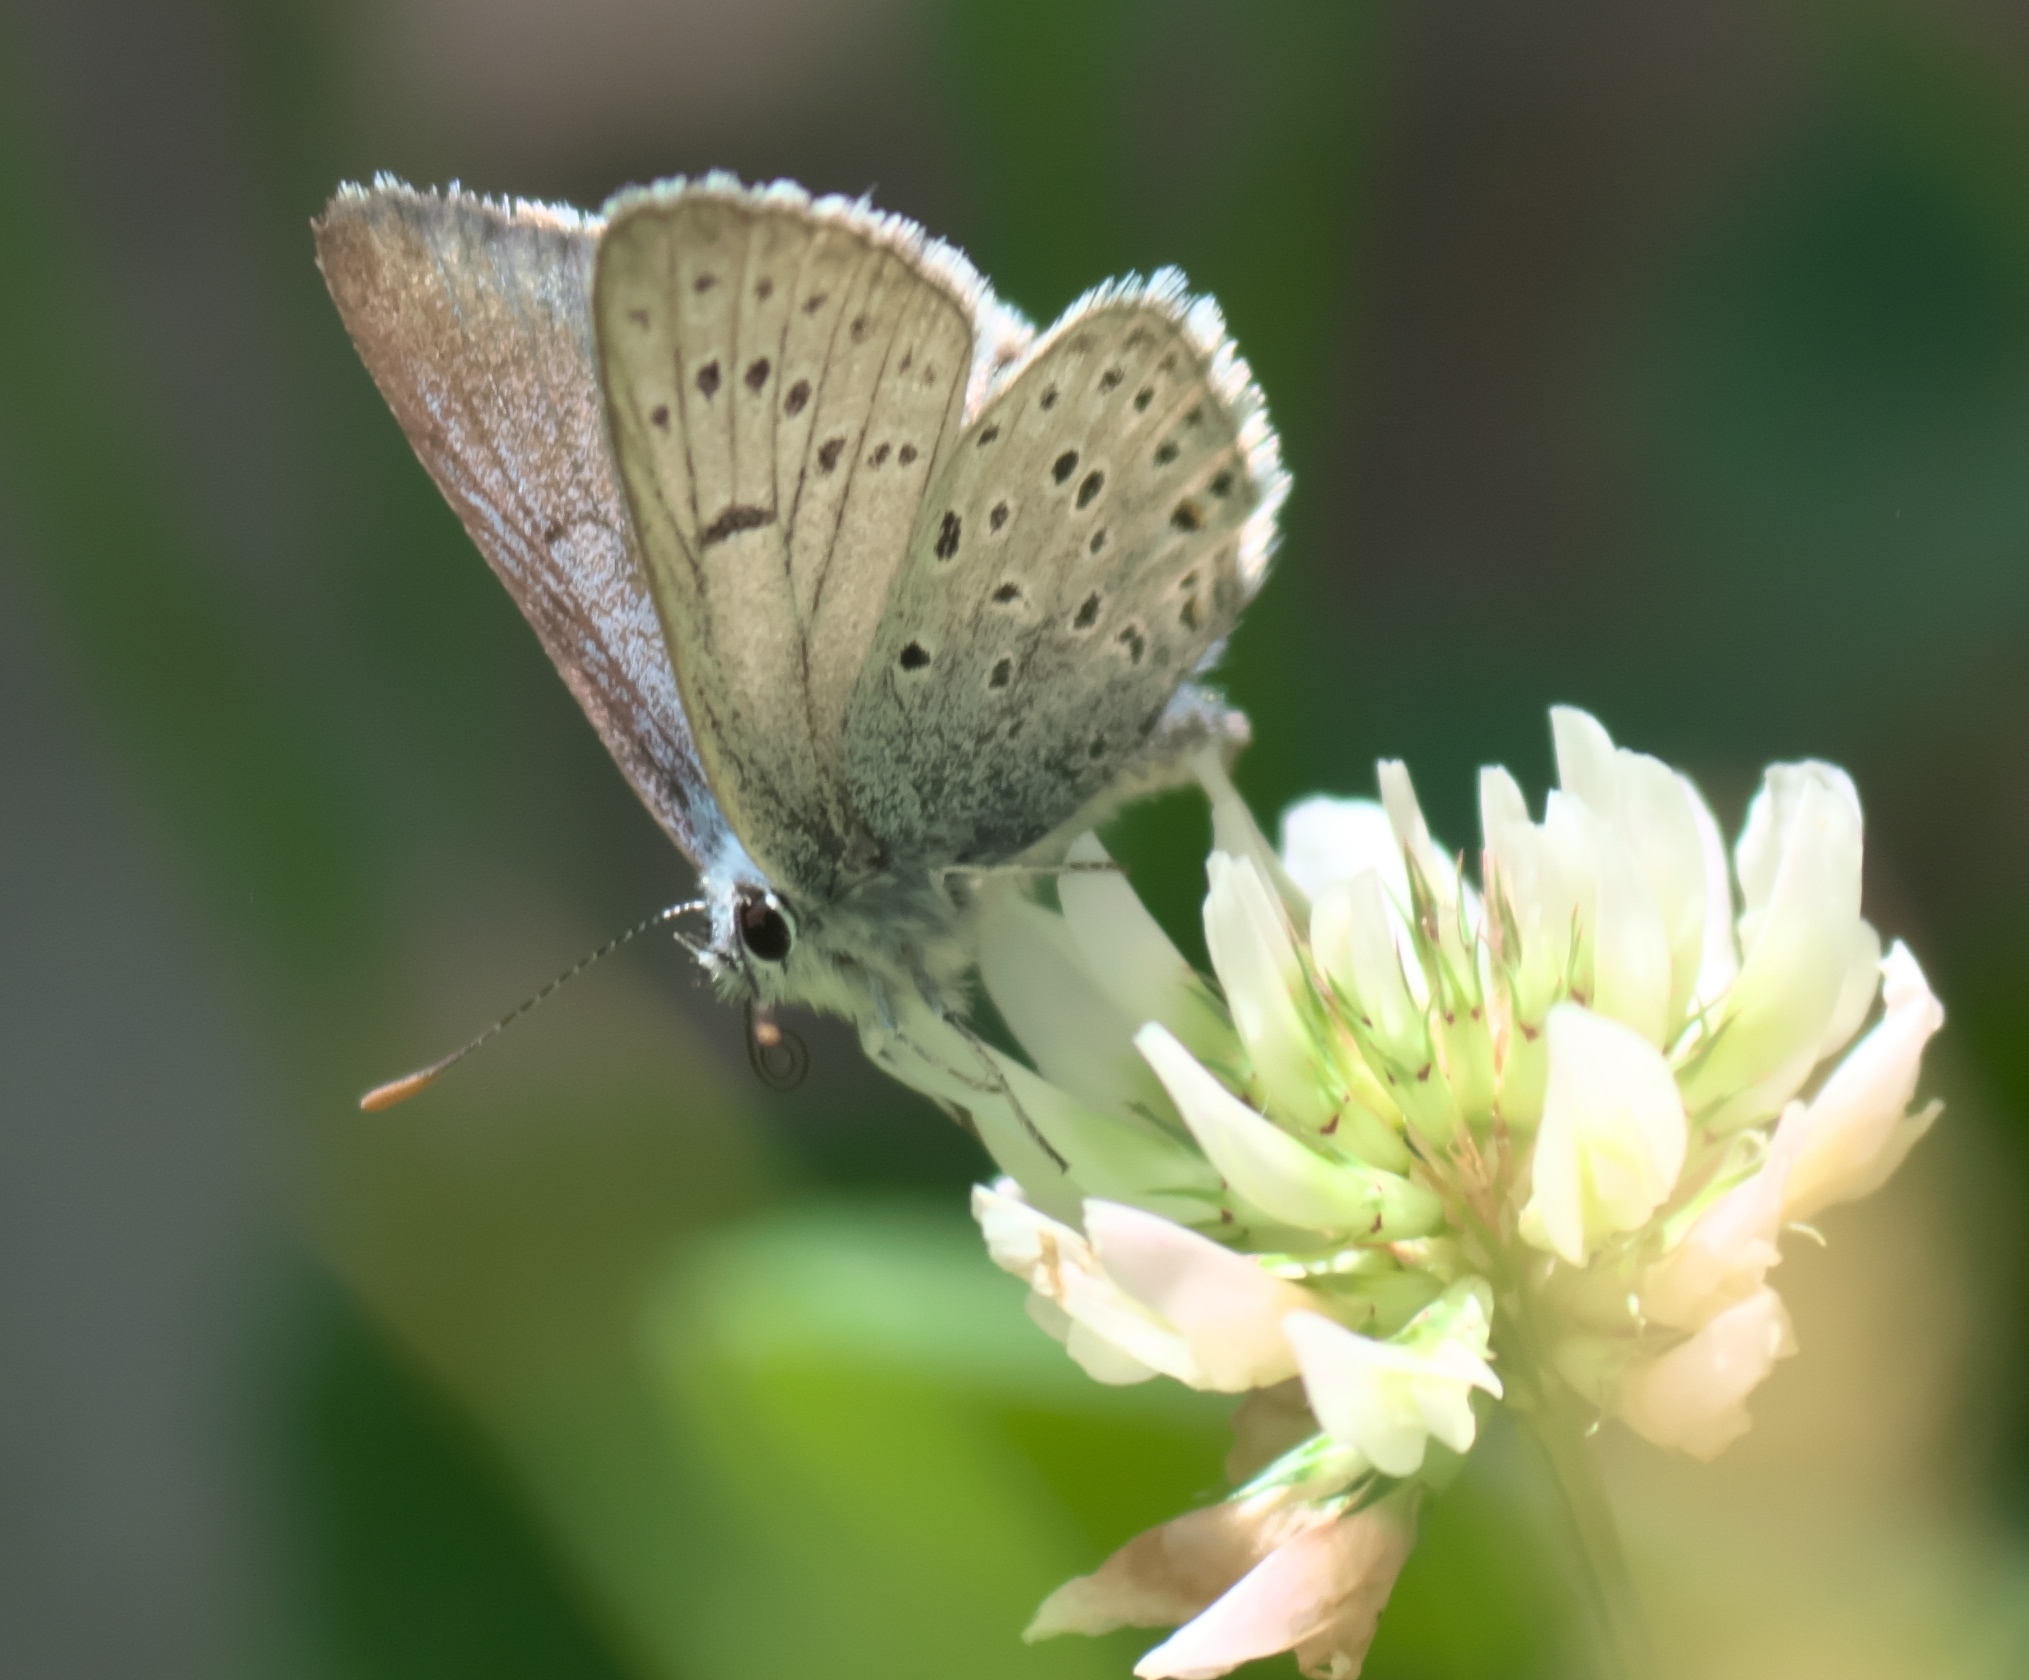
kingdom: Animalia
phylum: Arthropoda
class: Insecta
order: Lepidoptera
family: Lycaenidae
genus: Icaricia
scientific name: Icaricia saepiolus
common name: Greenish blue
